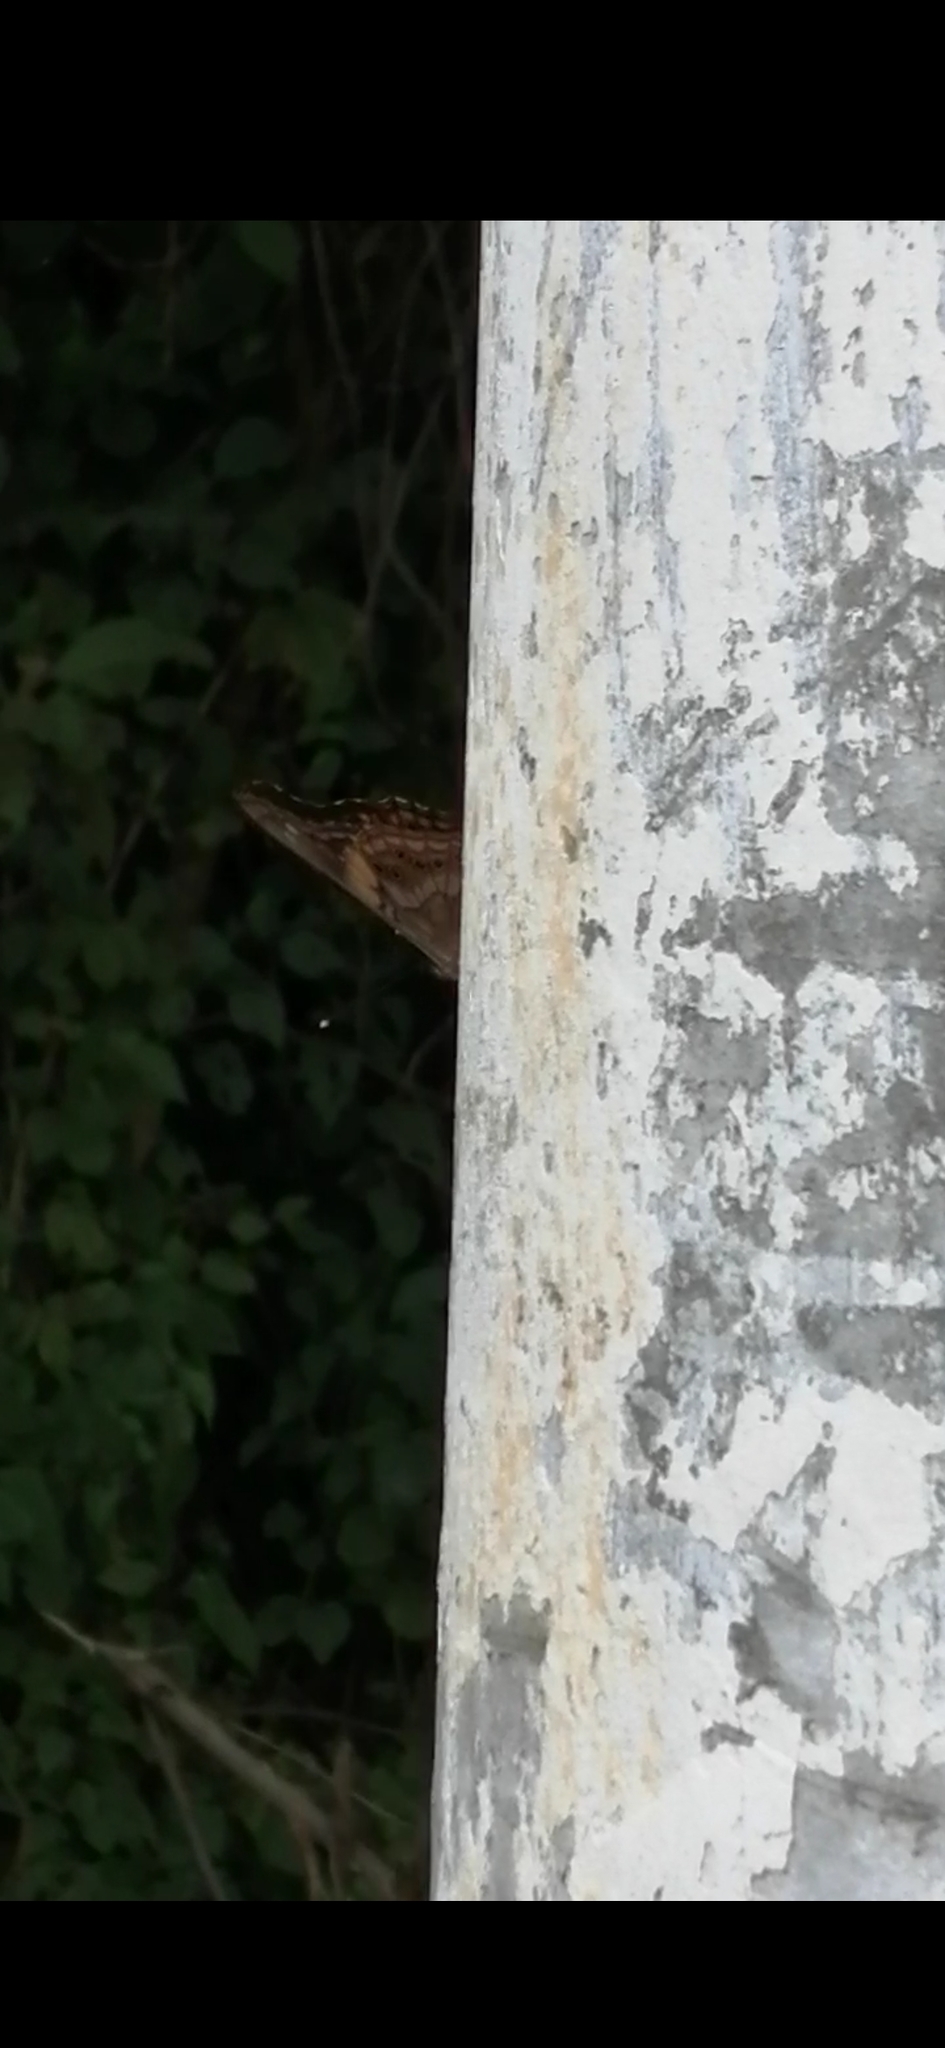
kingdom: Animalia
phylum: Arthropoda
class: Insecta
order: Lepidoptera
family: Nymphalidae
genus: Asterocampa
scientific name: Asterocampa idyja
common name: Dusky emperor
